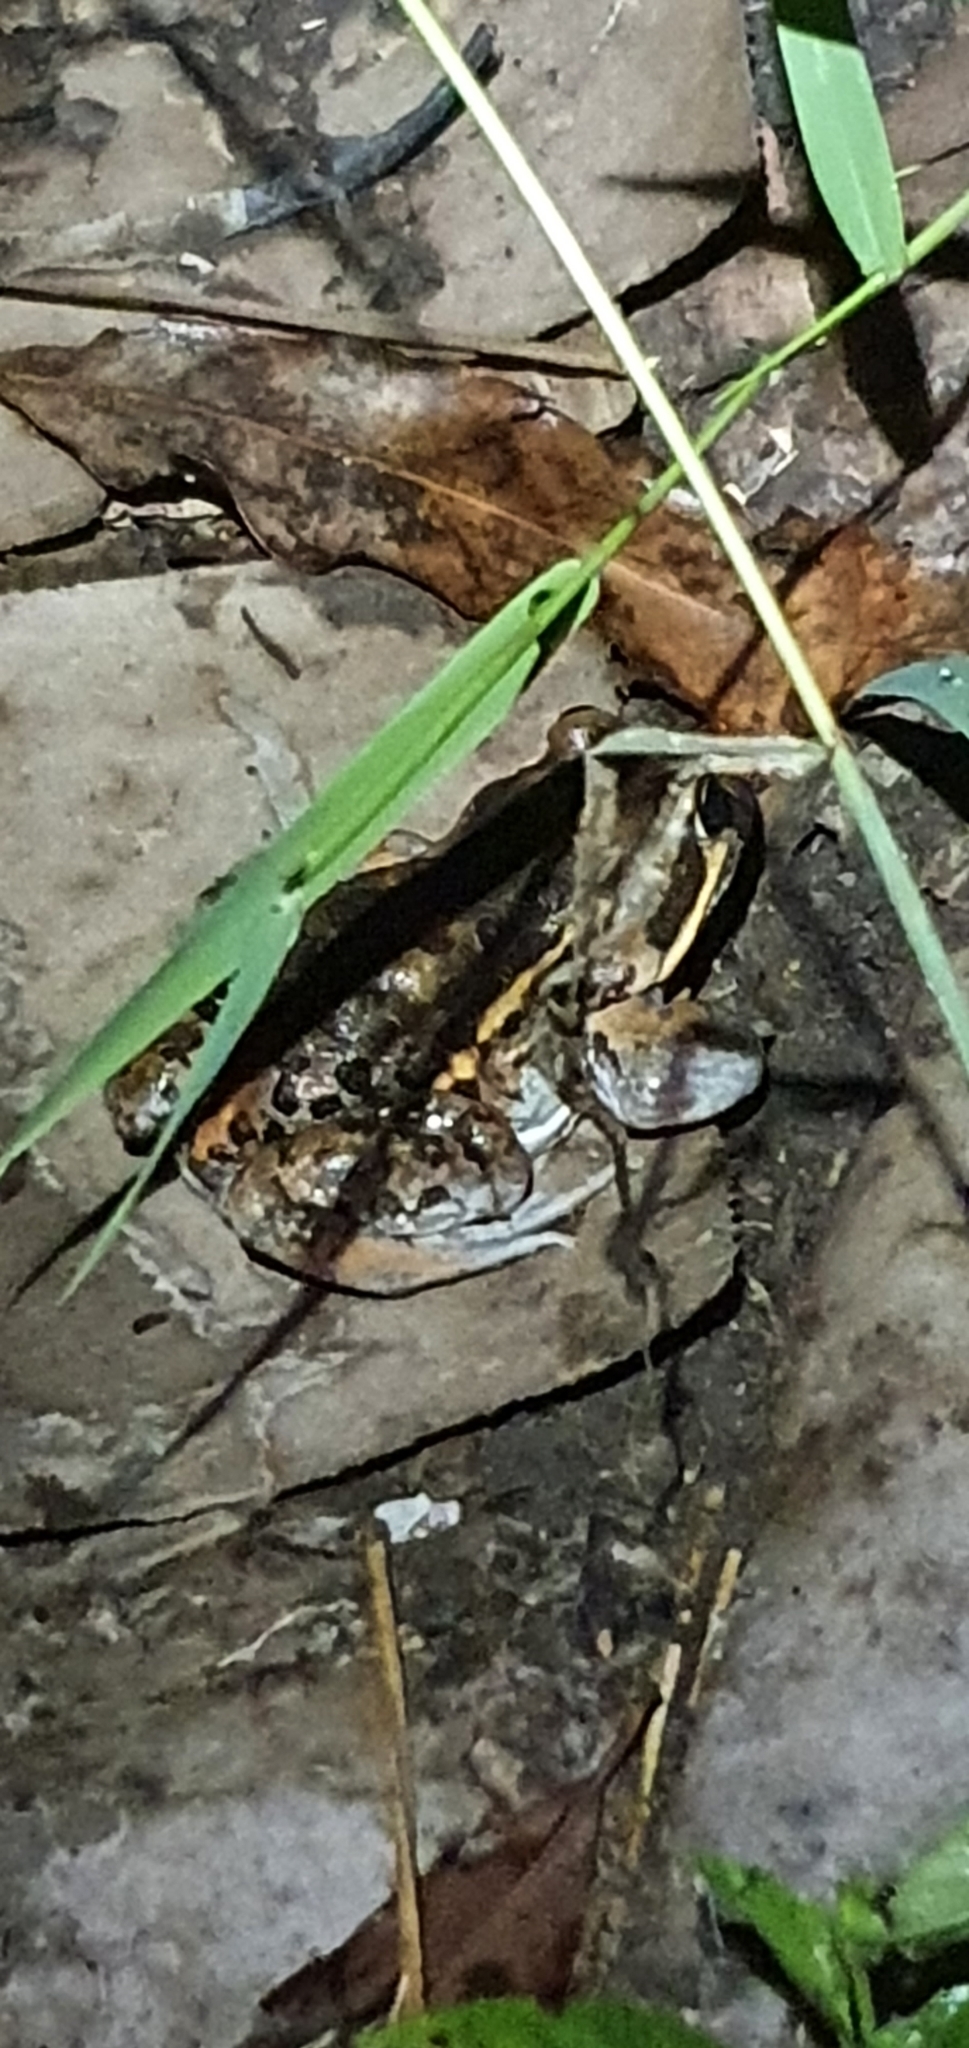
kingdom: Animalia
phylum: Chordata
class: Amphibia
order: Anura
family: Limnodynastidae
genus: Limnodynastes
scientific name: Limnodynastes salmini
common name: Salmon-striped frog
